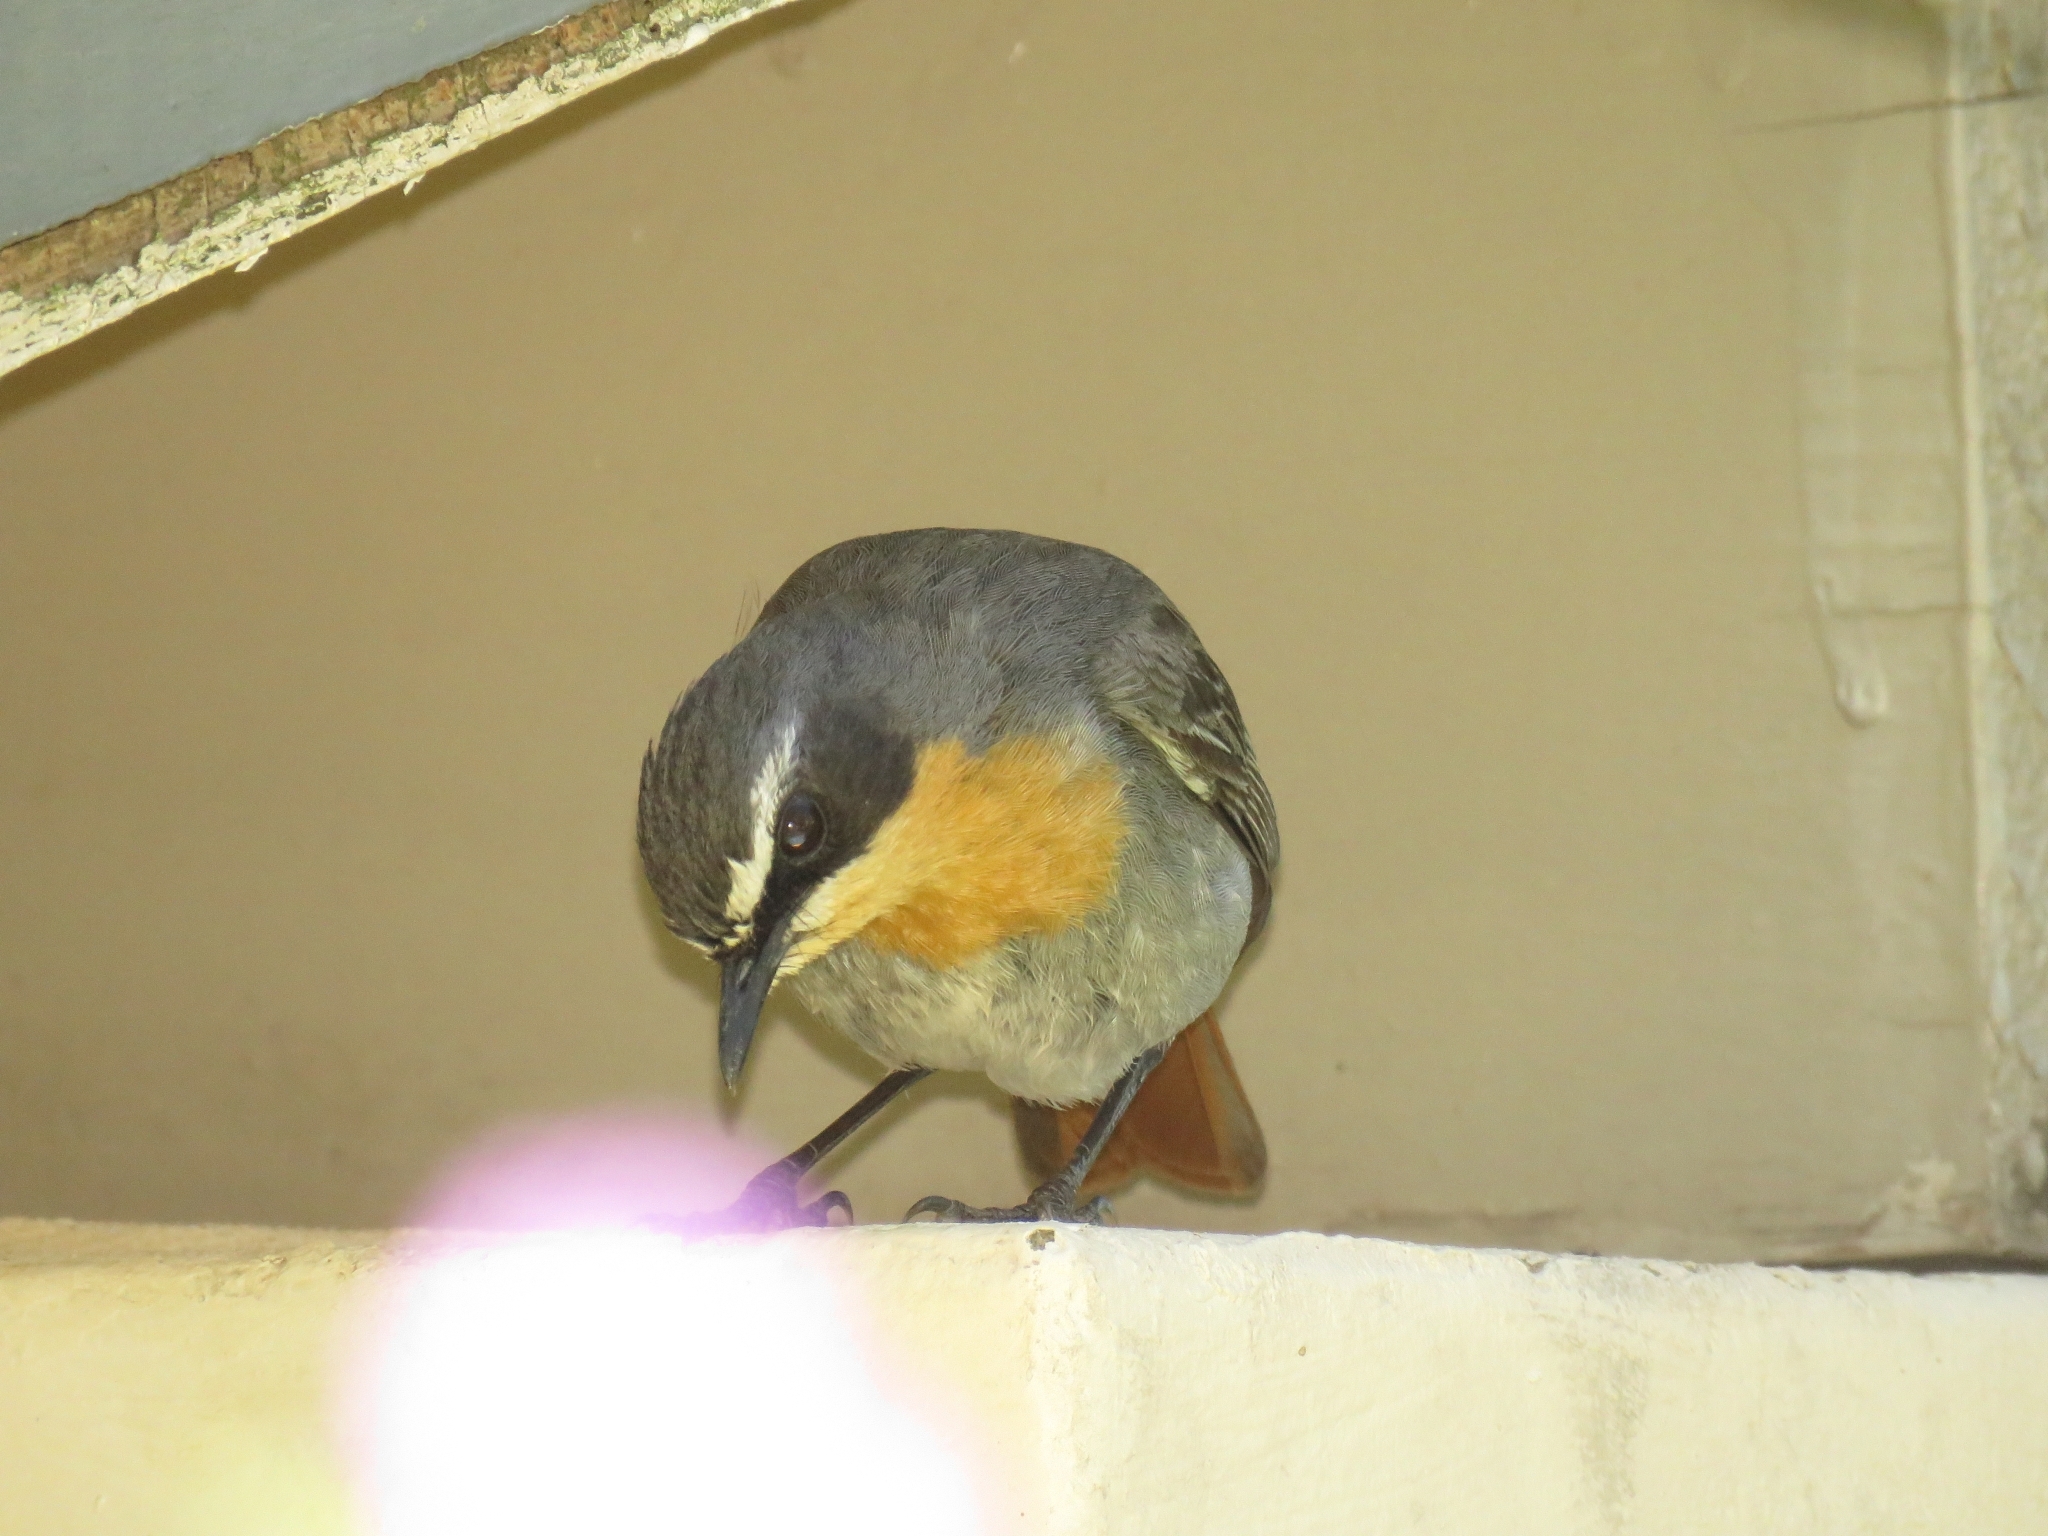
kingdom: Animalia
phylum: Chordata
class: Aves
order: Passeriformes
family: Muscicapidae
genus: Cossypha
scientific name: Cossypha caffra
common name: Cape robin-chat
